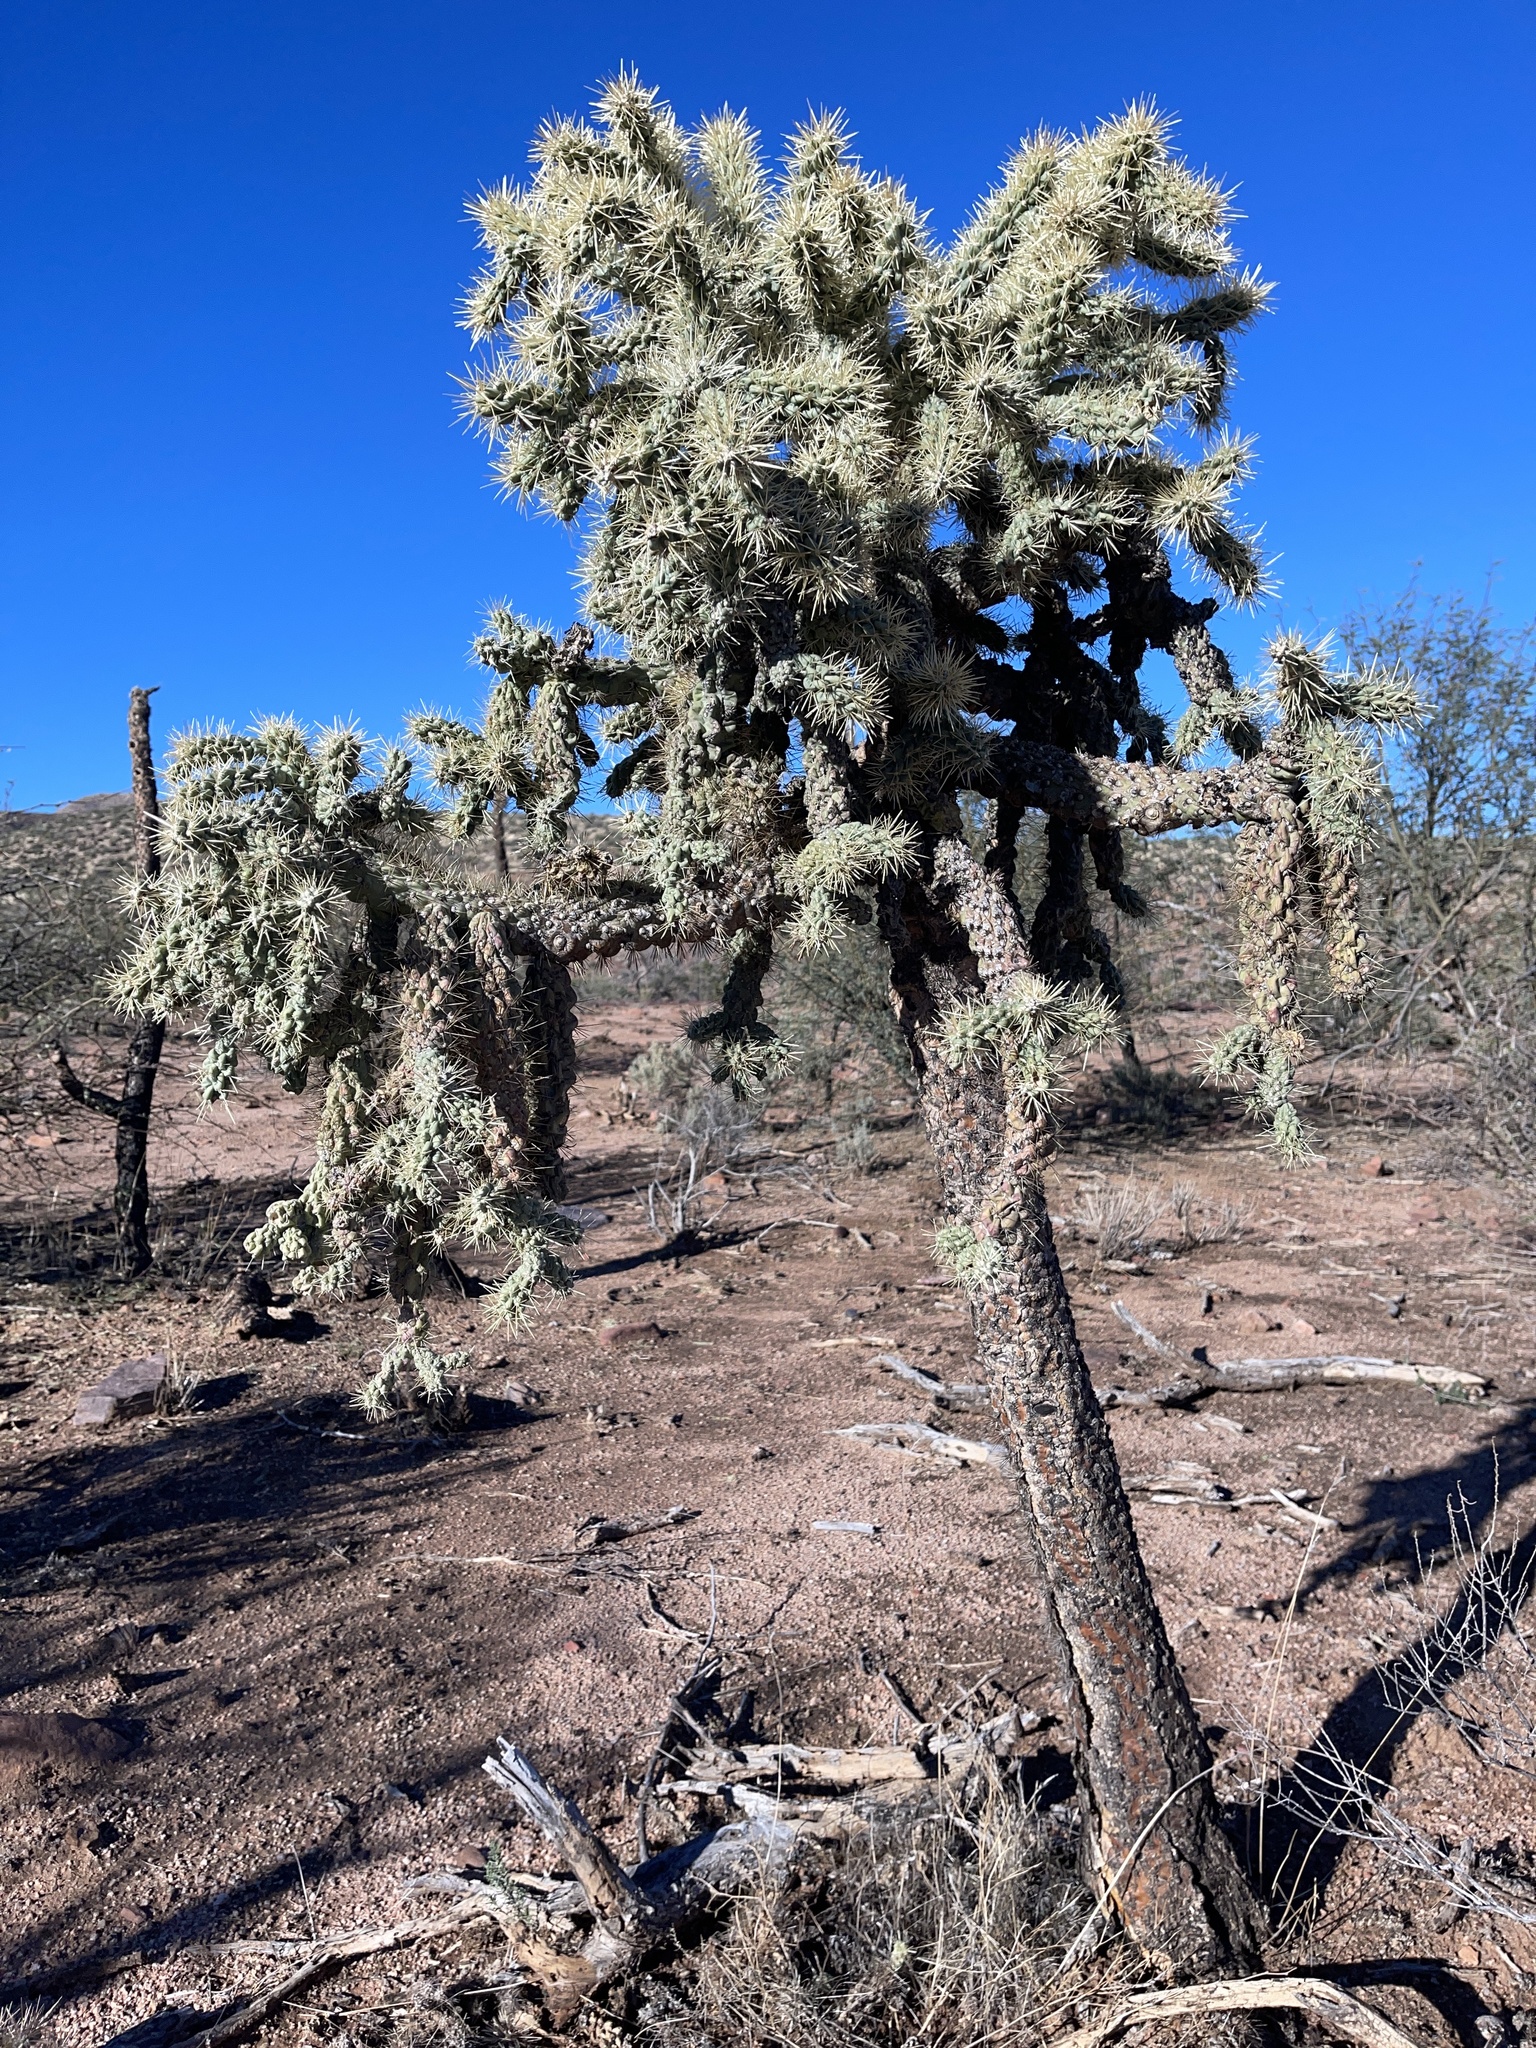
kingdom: Plantae
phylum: Tracheophyta
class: Magnoliopsida
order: Caryophyllales
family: Cactaceae
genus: Cylindropuntia
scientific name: Cylindropuntia fulgida
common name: Jumping cholla
